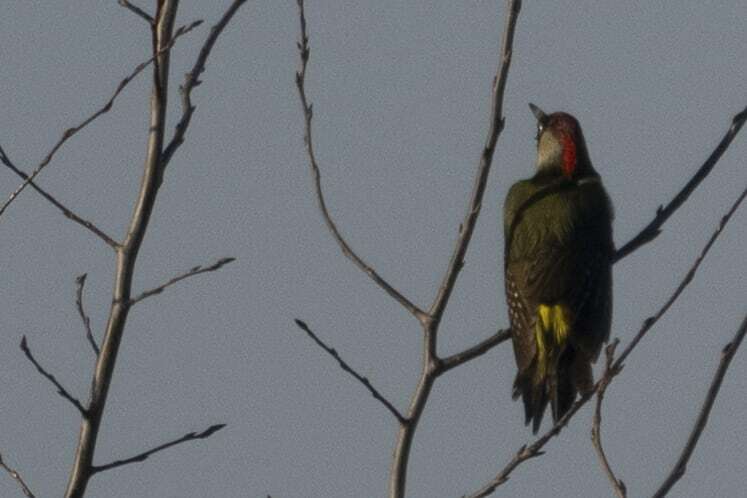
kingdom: Animalia
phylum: Chordata
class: Aves
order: Piciformes
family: Picidae
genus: Picus
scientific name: Picus viridis
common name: European green woodpecker
